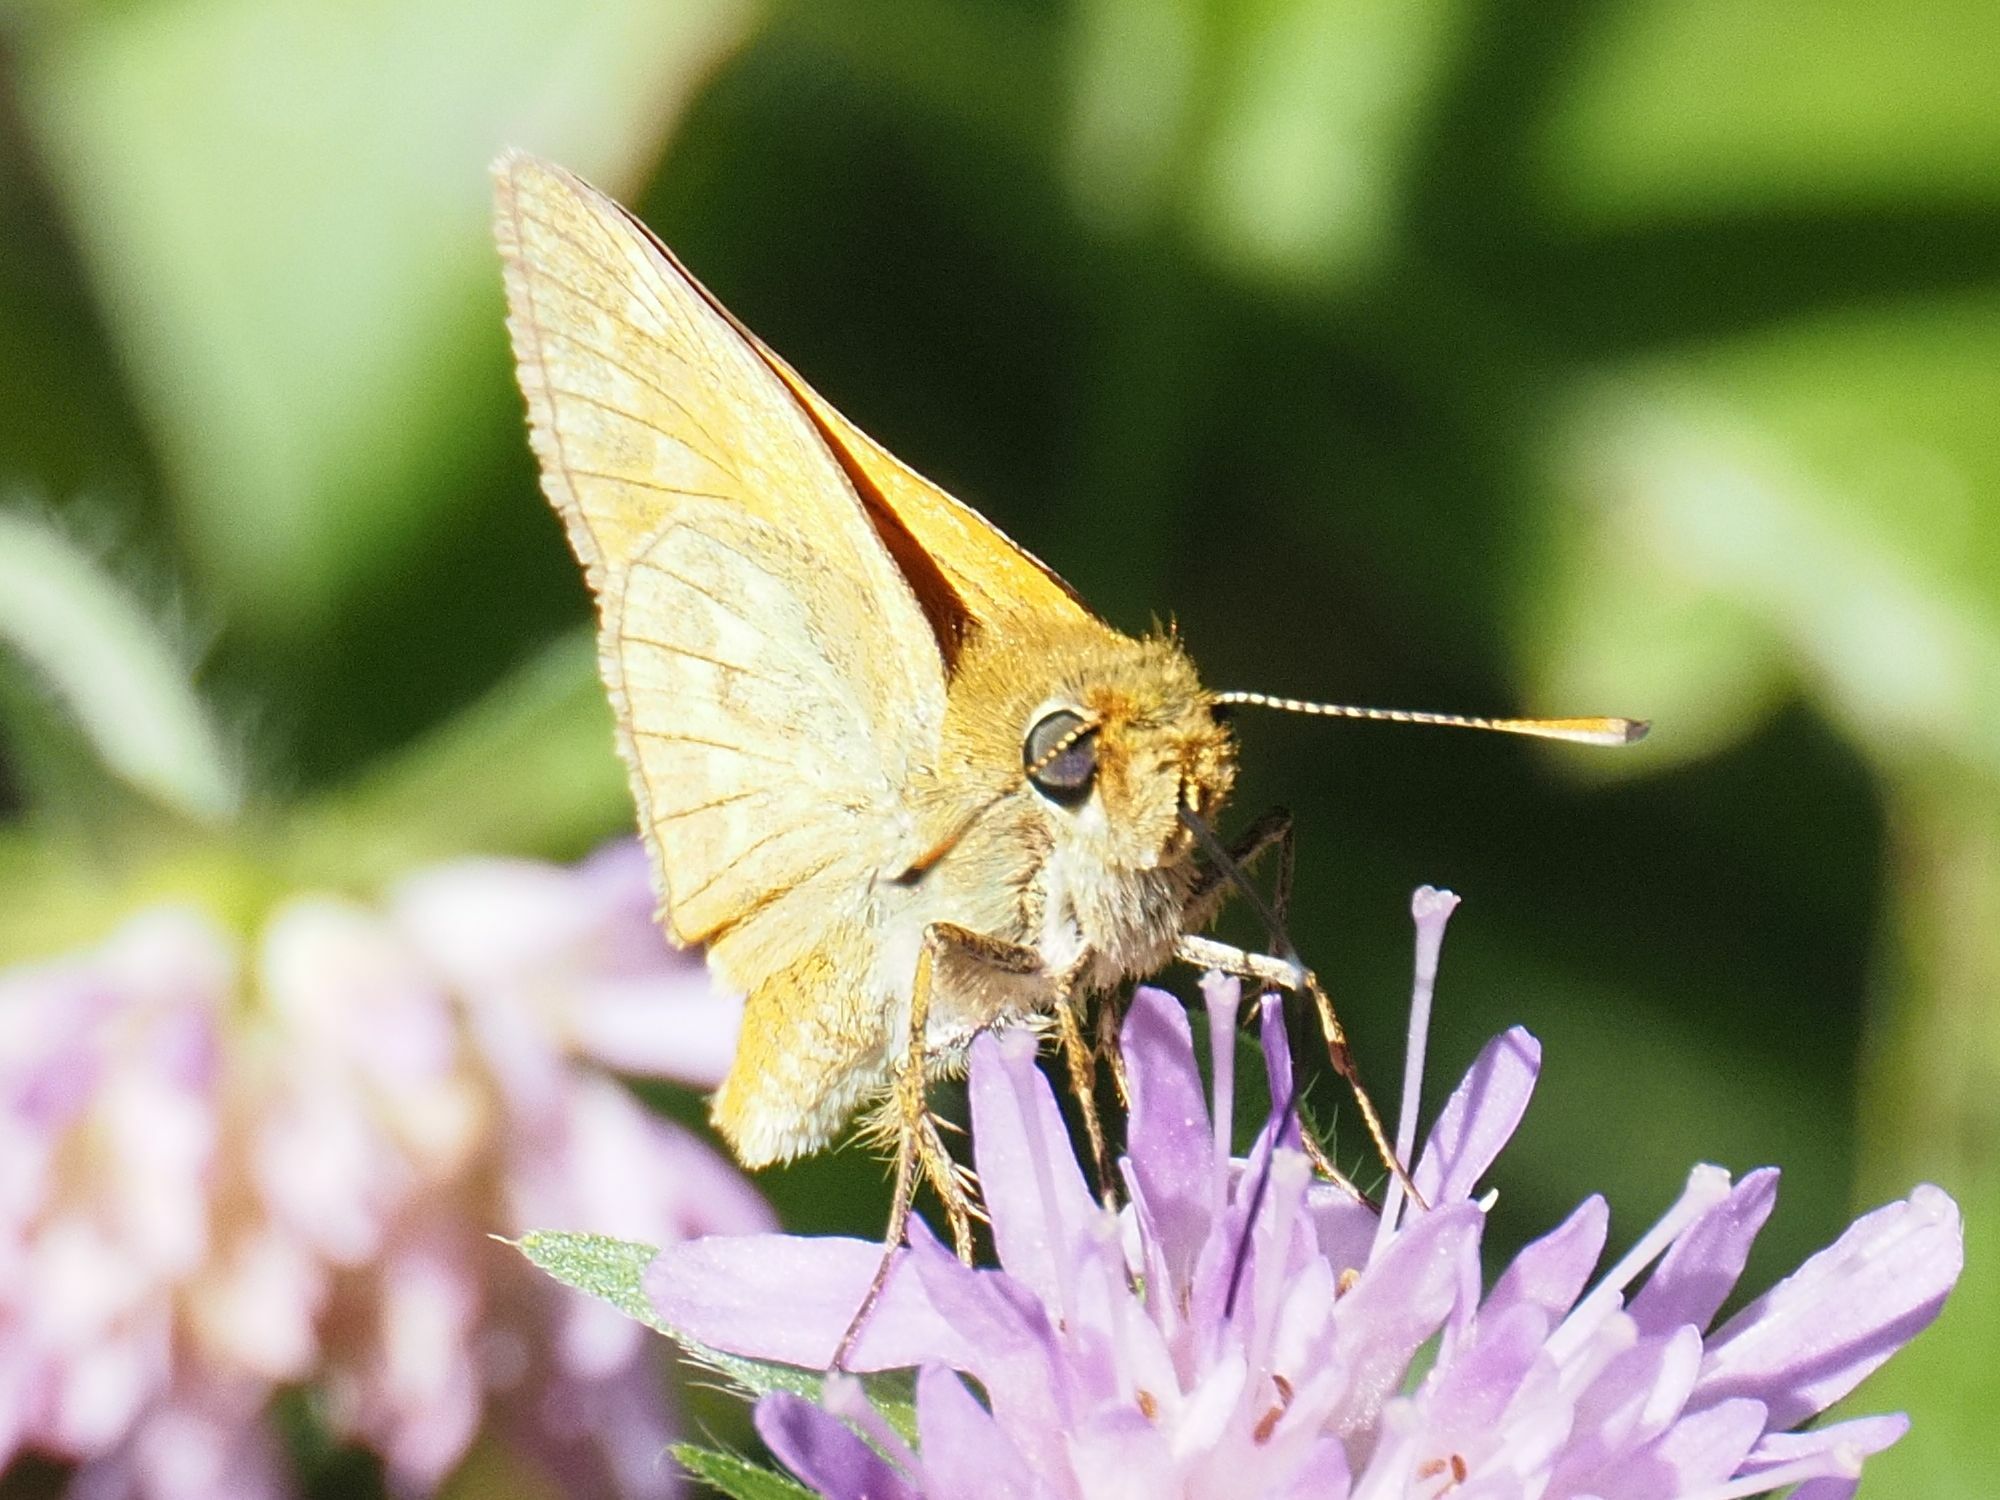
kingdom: Animalia
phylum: Arthropoda
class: Insecta
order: Lepidoptera
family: Hesperiidae
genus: Ochlodes
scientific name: Ochlodes venata
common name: Large skipper
